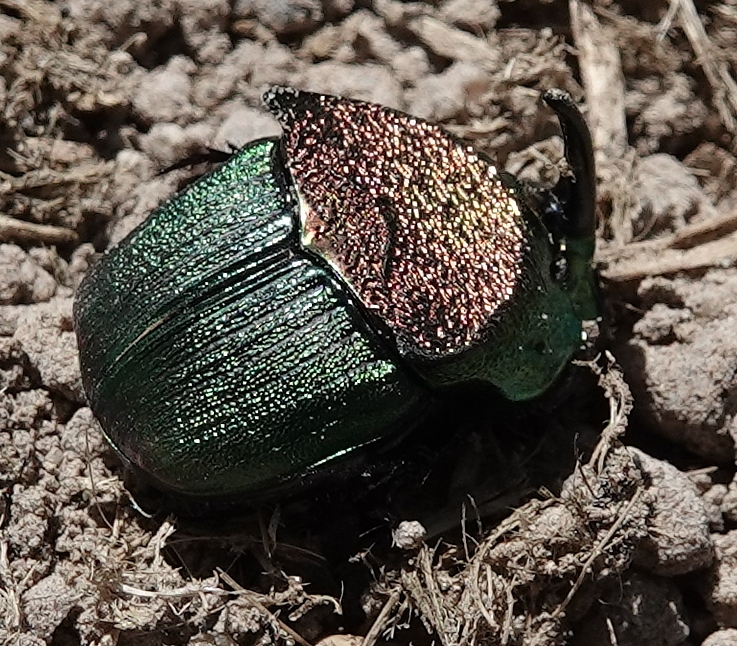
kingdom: Animalia
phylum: Arthropoda
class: Insecta
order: Coleoptera
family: Scarabaeidae
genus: Phanaeus
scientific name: Phanaeus vindex
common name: Rainbow scarab
